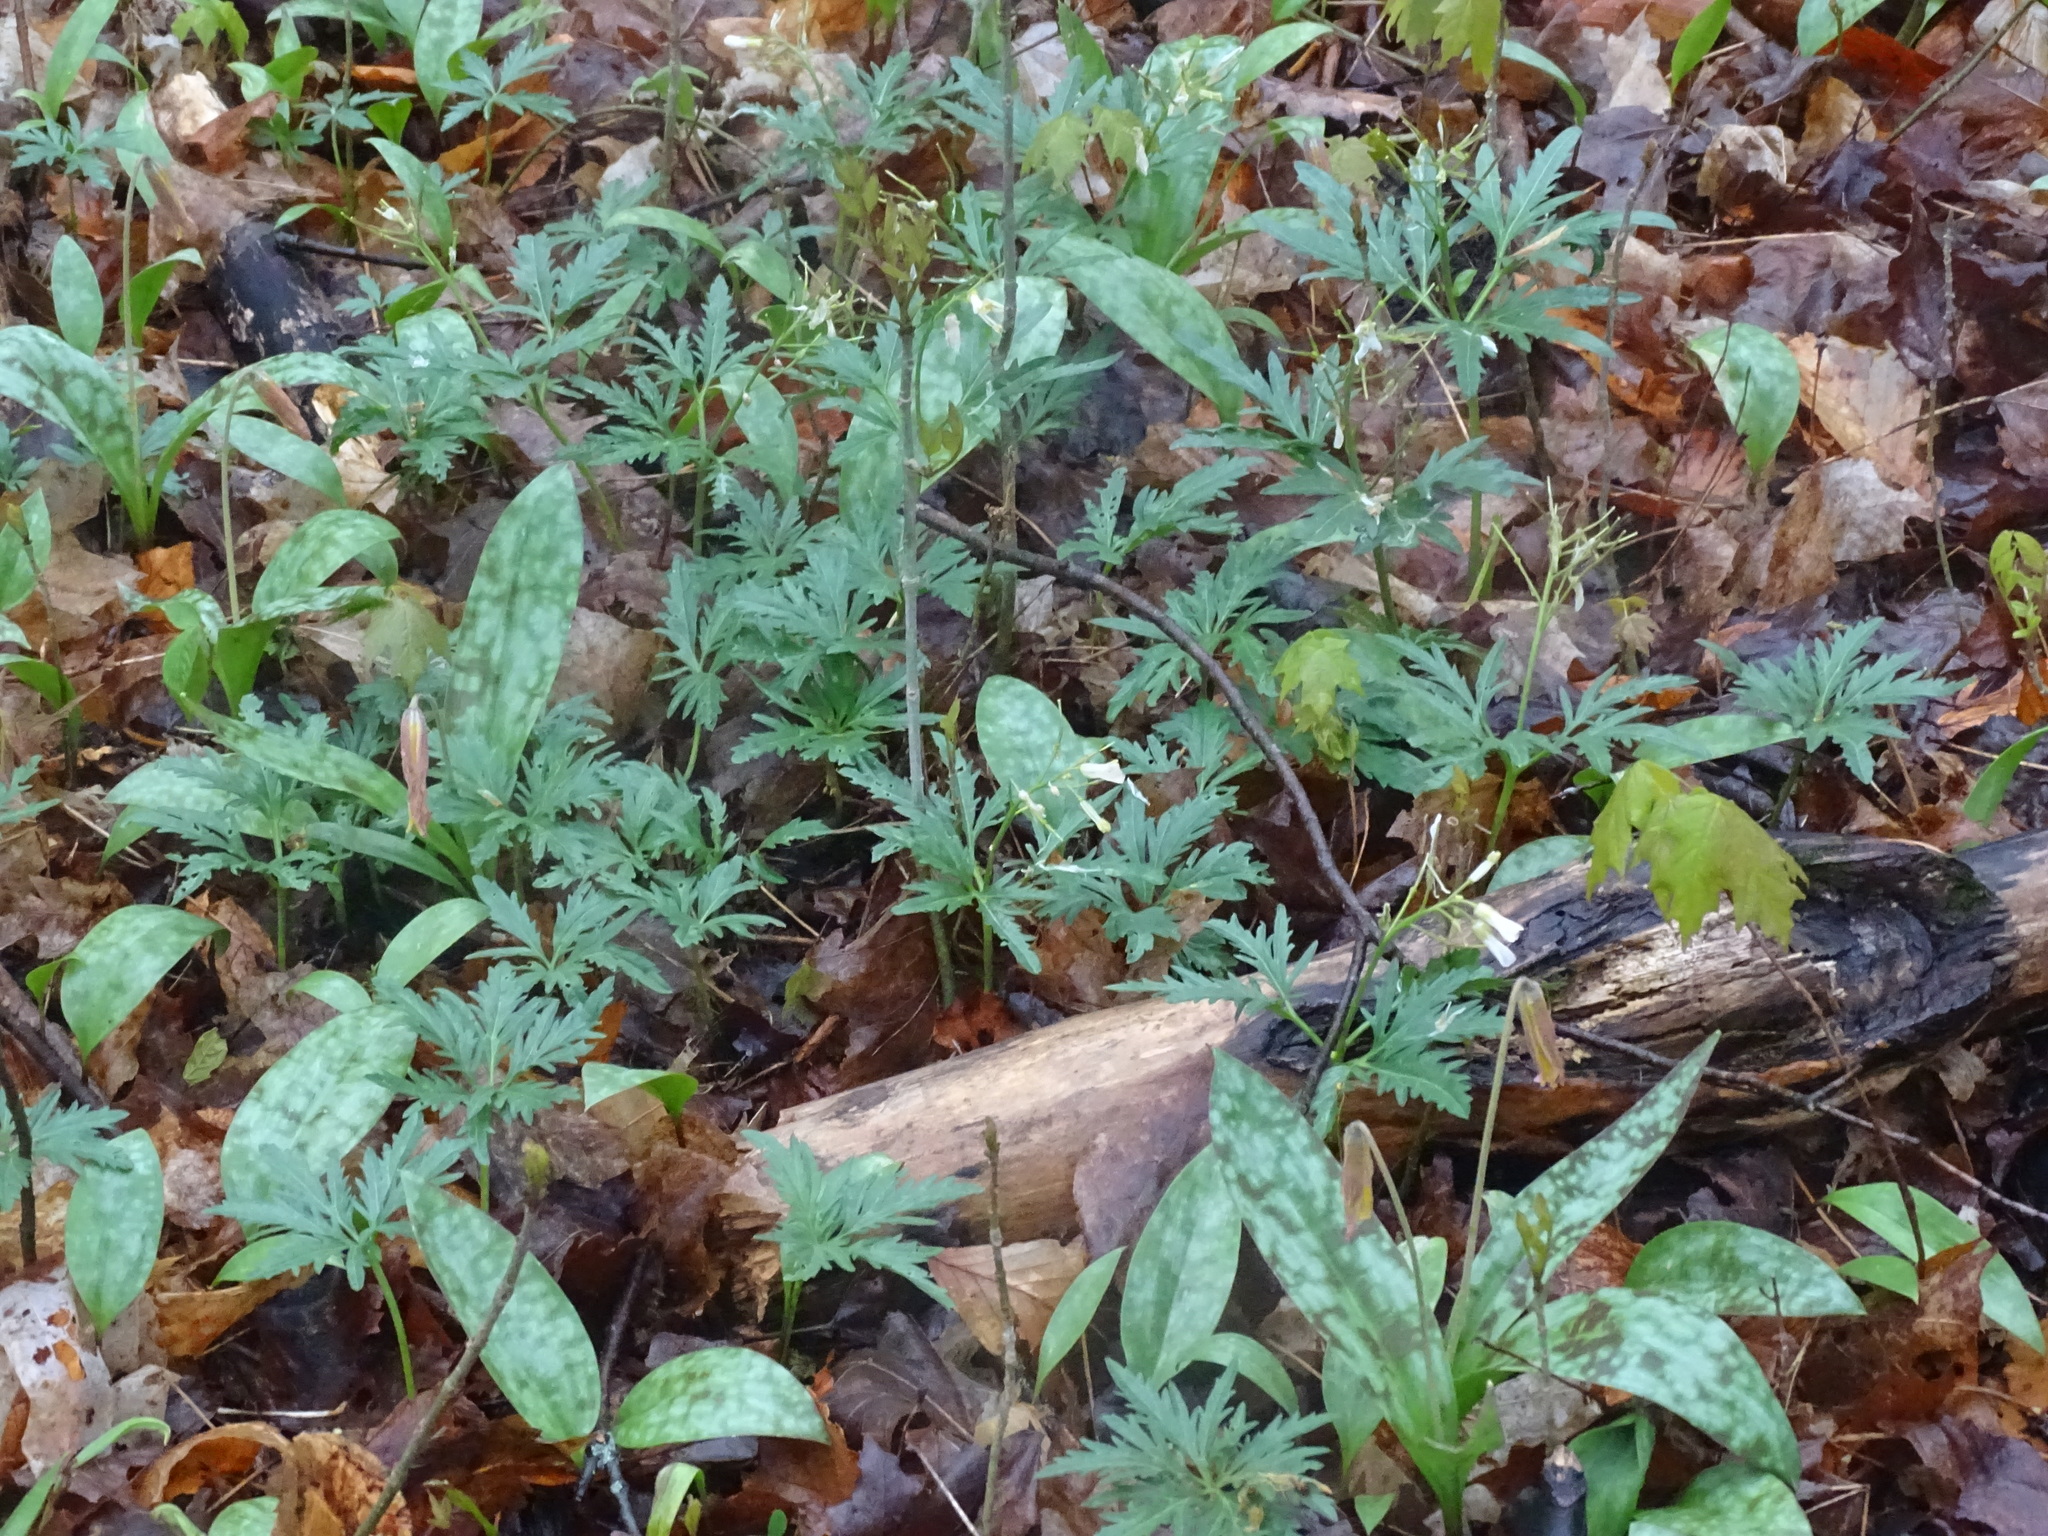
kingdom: Plantae
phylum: Tracheophyta
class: Magnoliopsida
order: Brassicales
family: Brassicaceae
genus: Cardamine
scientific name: Cardamine concatenata
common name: Cut-leaf toothcup
